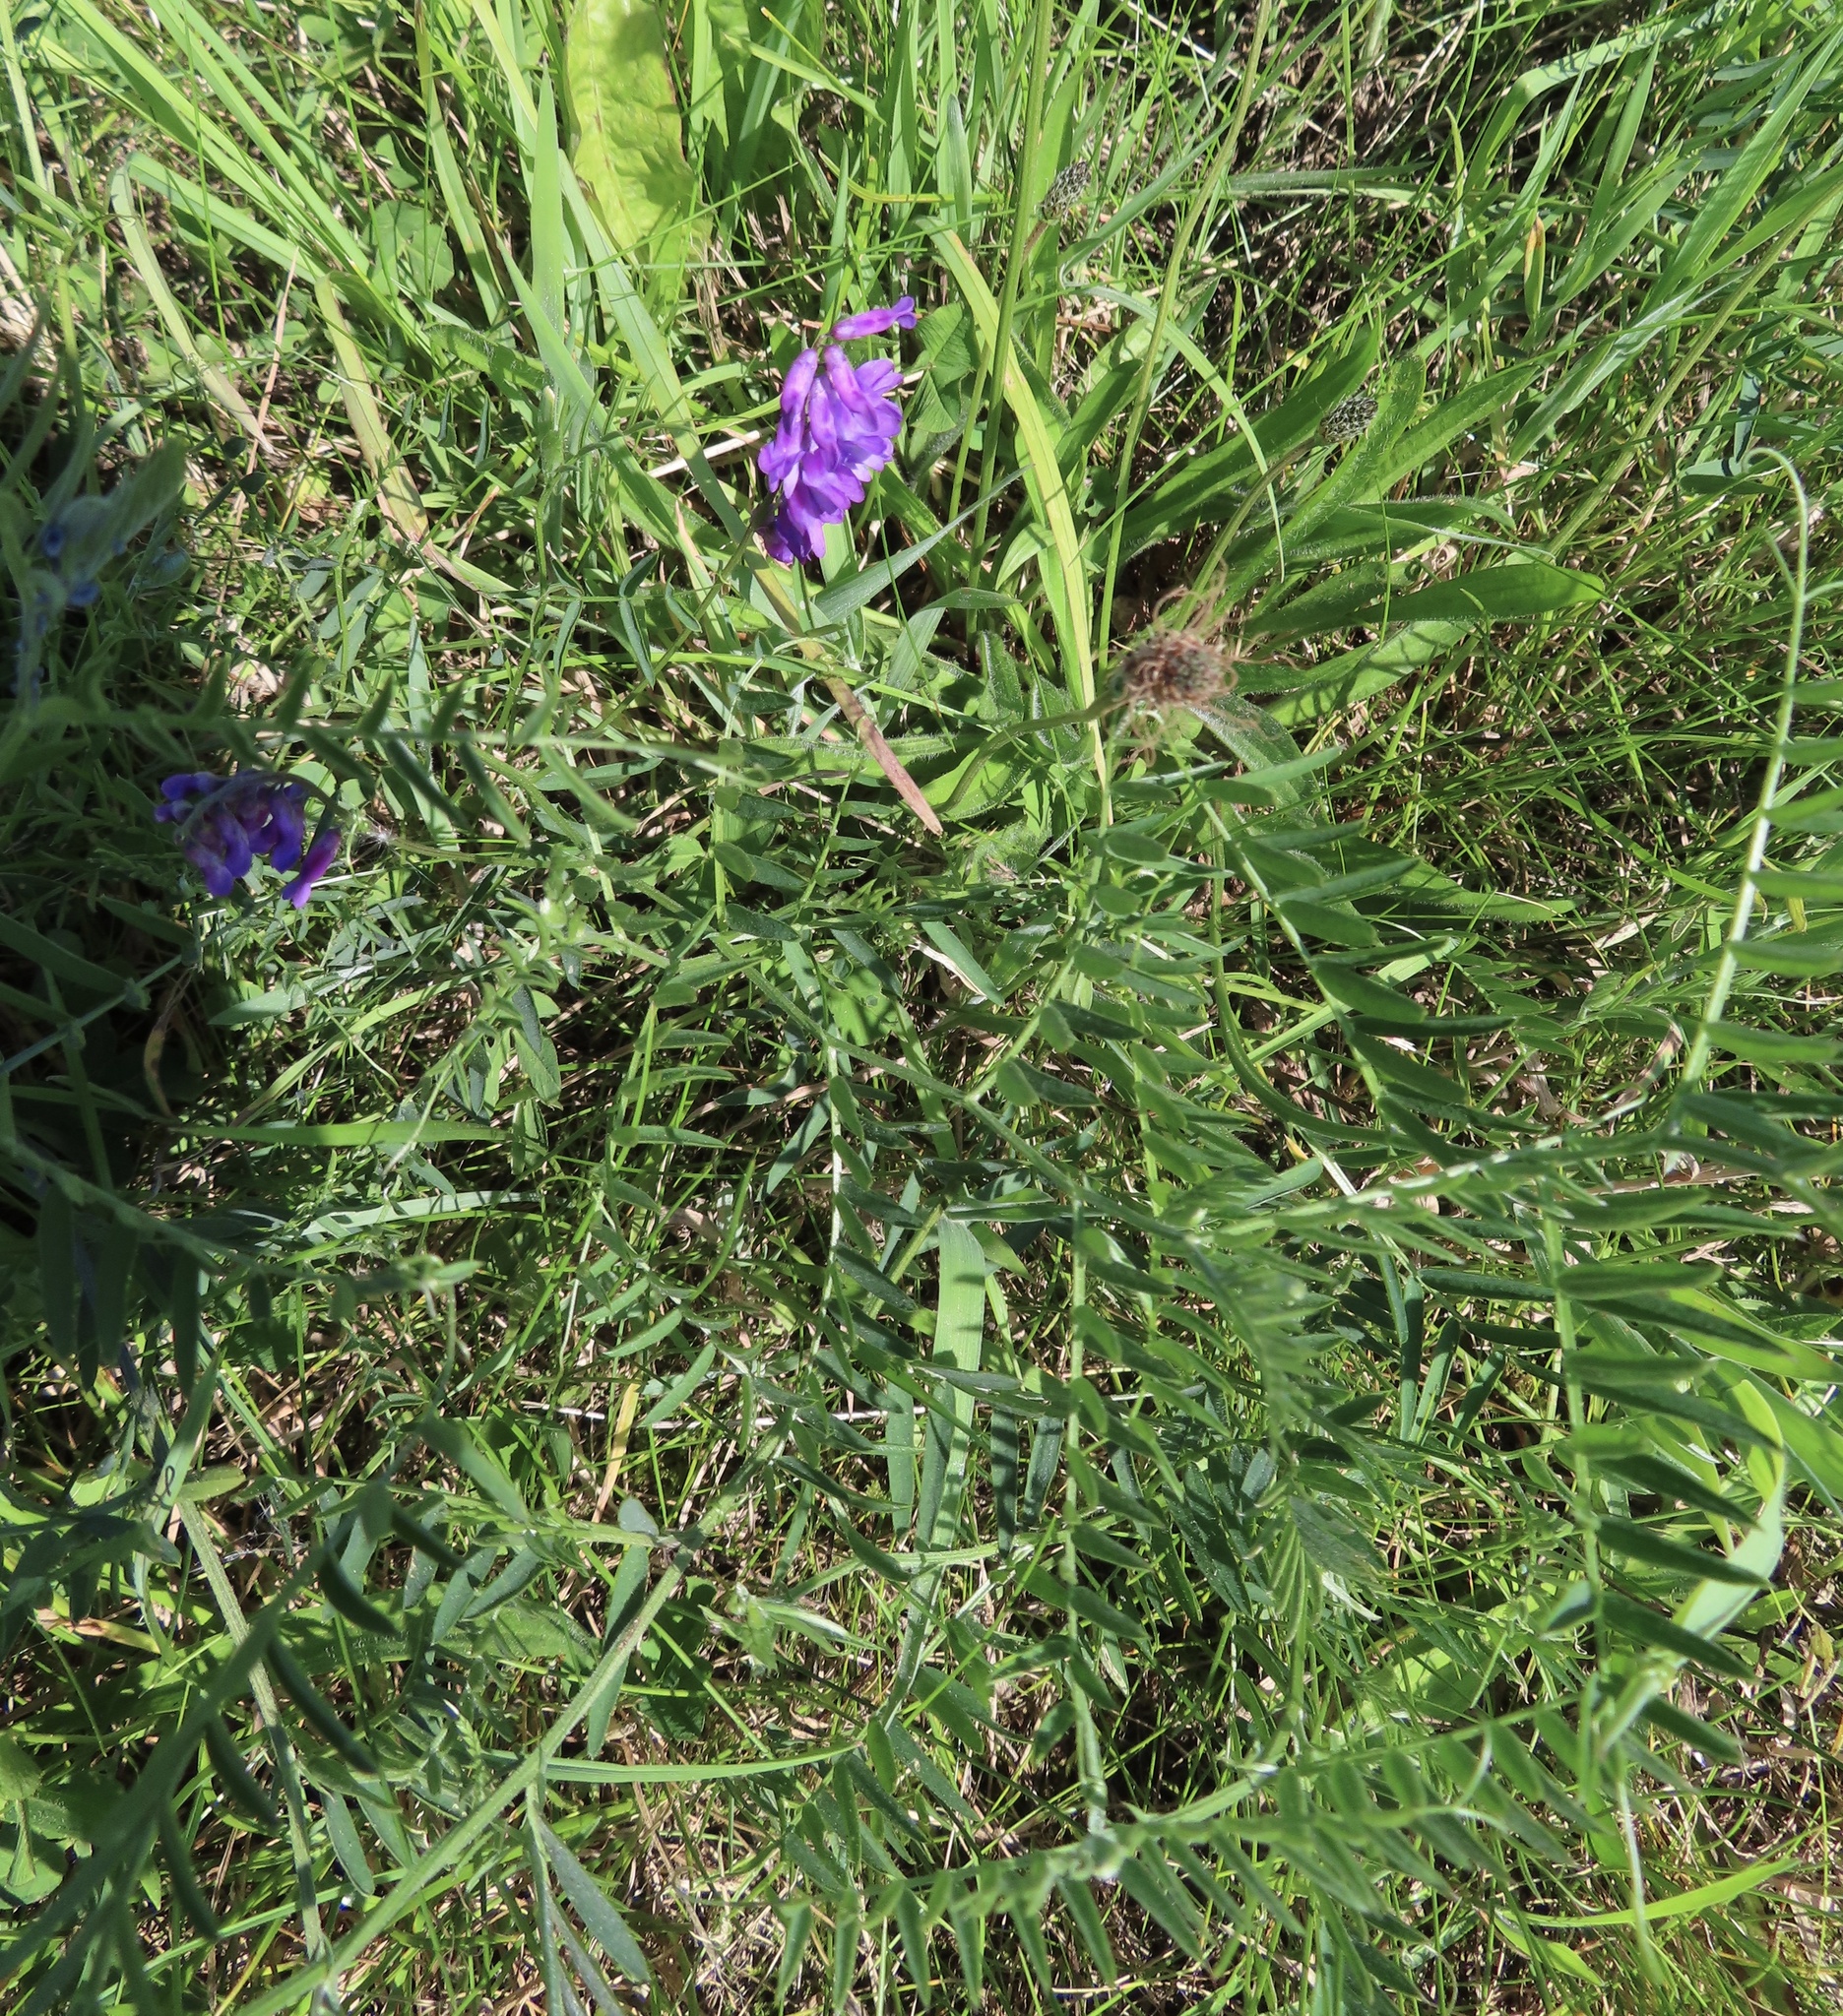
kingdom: Plantae
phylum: Tracheophyta
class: Magnoliopsida
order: Fabales
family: Fabaceae
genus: Vicia
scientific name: Vicia cracca
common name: Bird vetch
